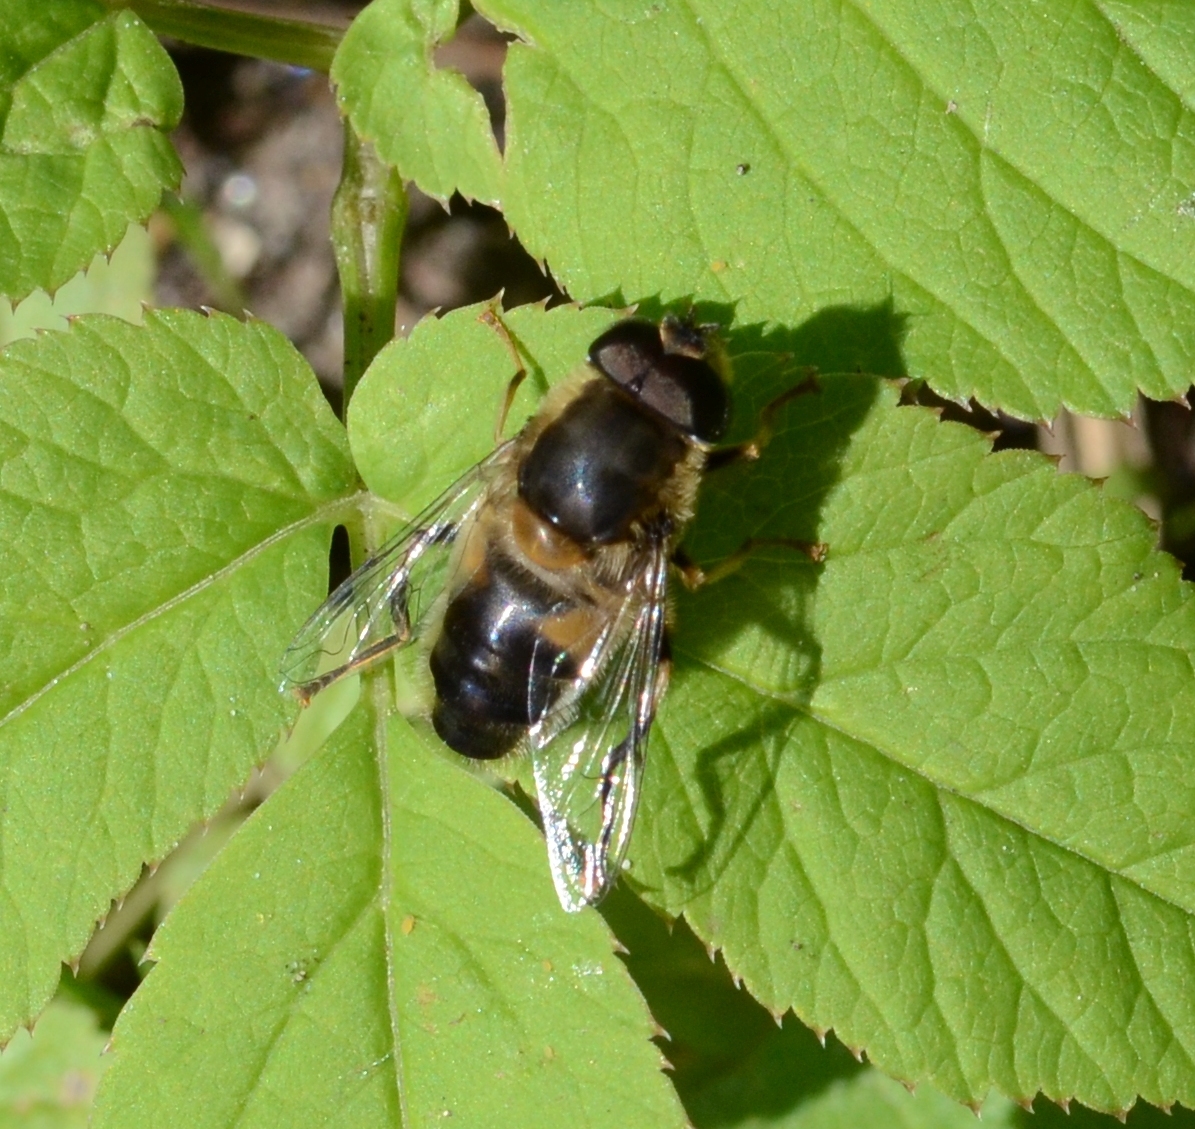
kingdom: Animalia
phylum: Arthropoda
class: Insecta
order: Diptera
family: Syrphidae
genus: Eristalis
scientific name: Eristalis pertinax
